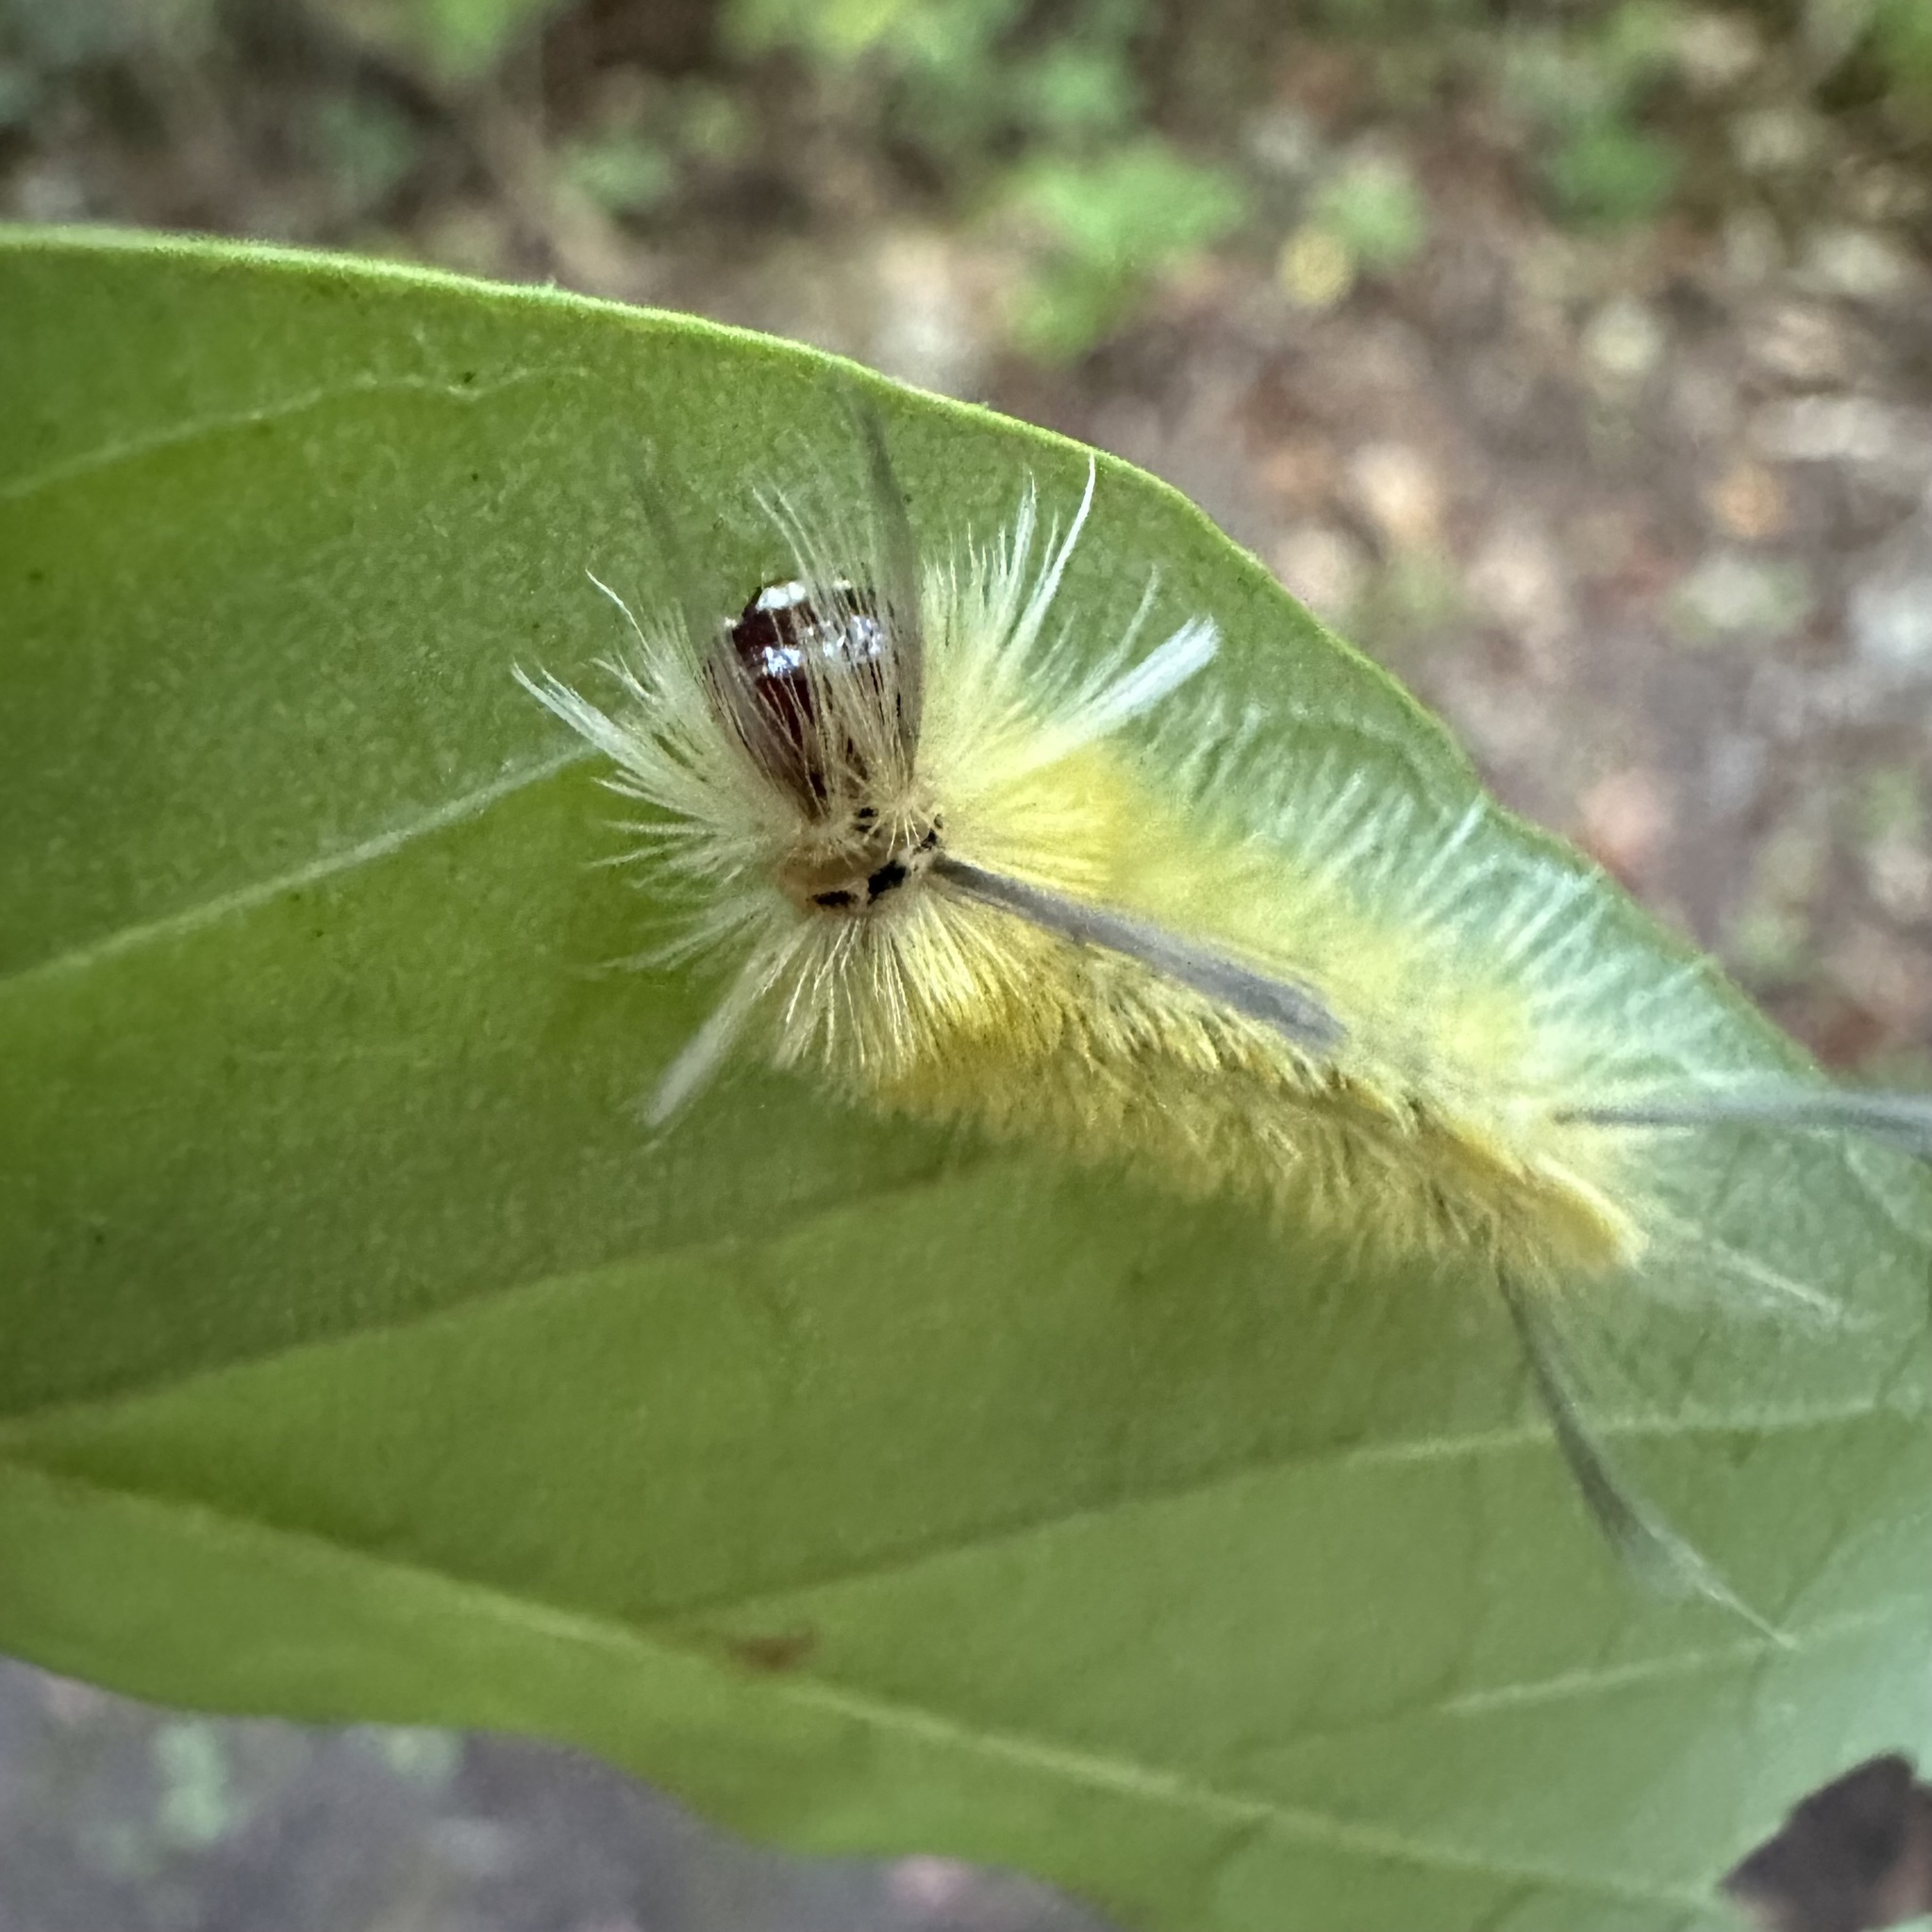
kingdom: Animalia
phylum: Arthropoda
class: Insecta
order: Lepidoptera
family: Erebidae
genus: Halysidota
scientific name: Halysidota tessellaris
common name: Banded tussock moth
